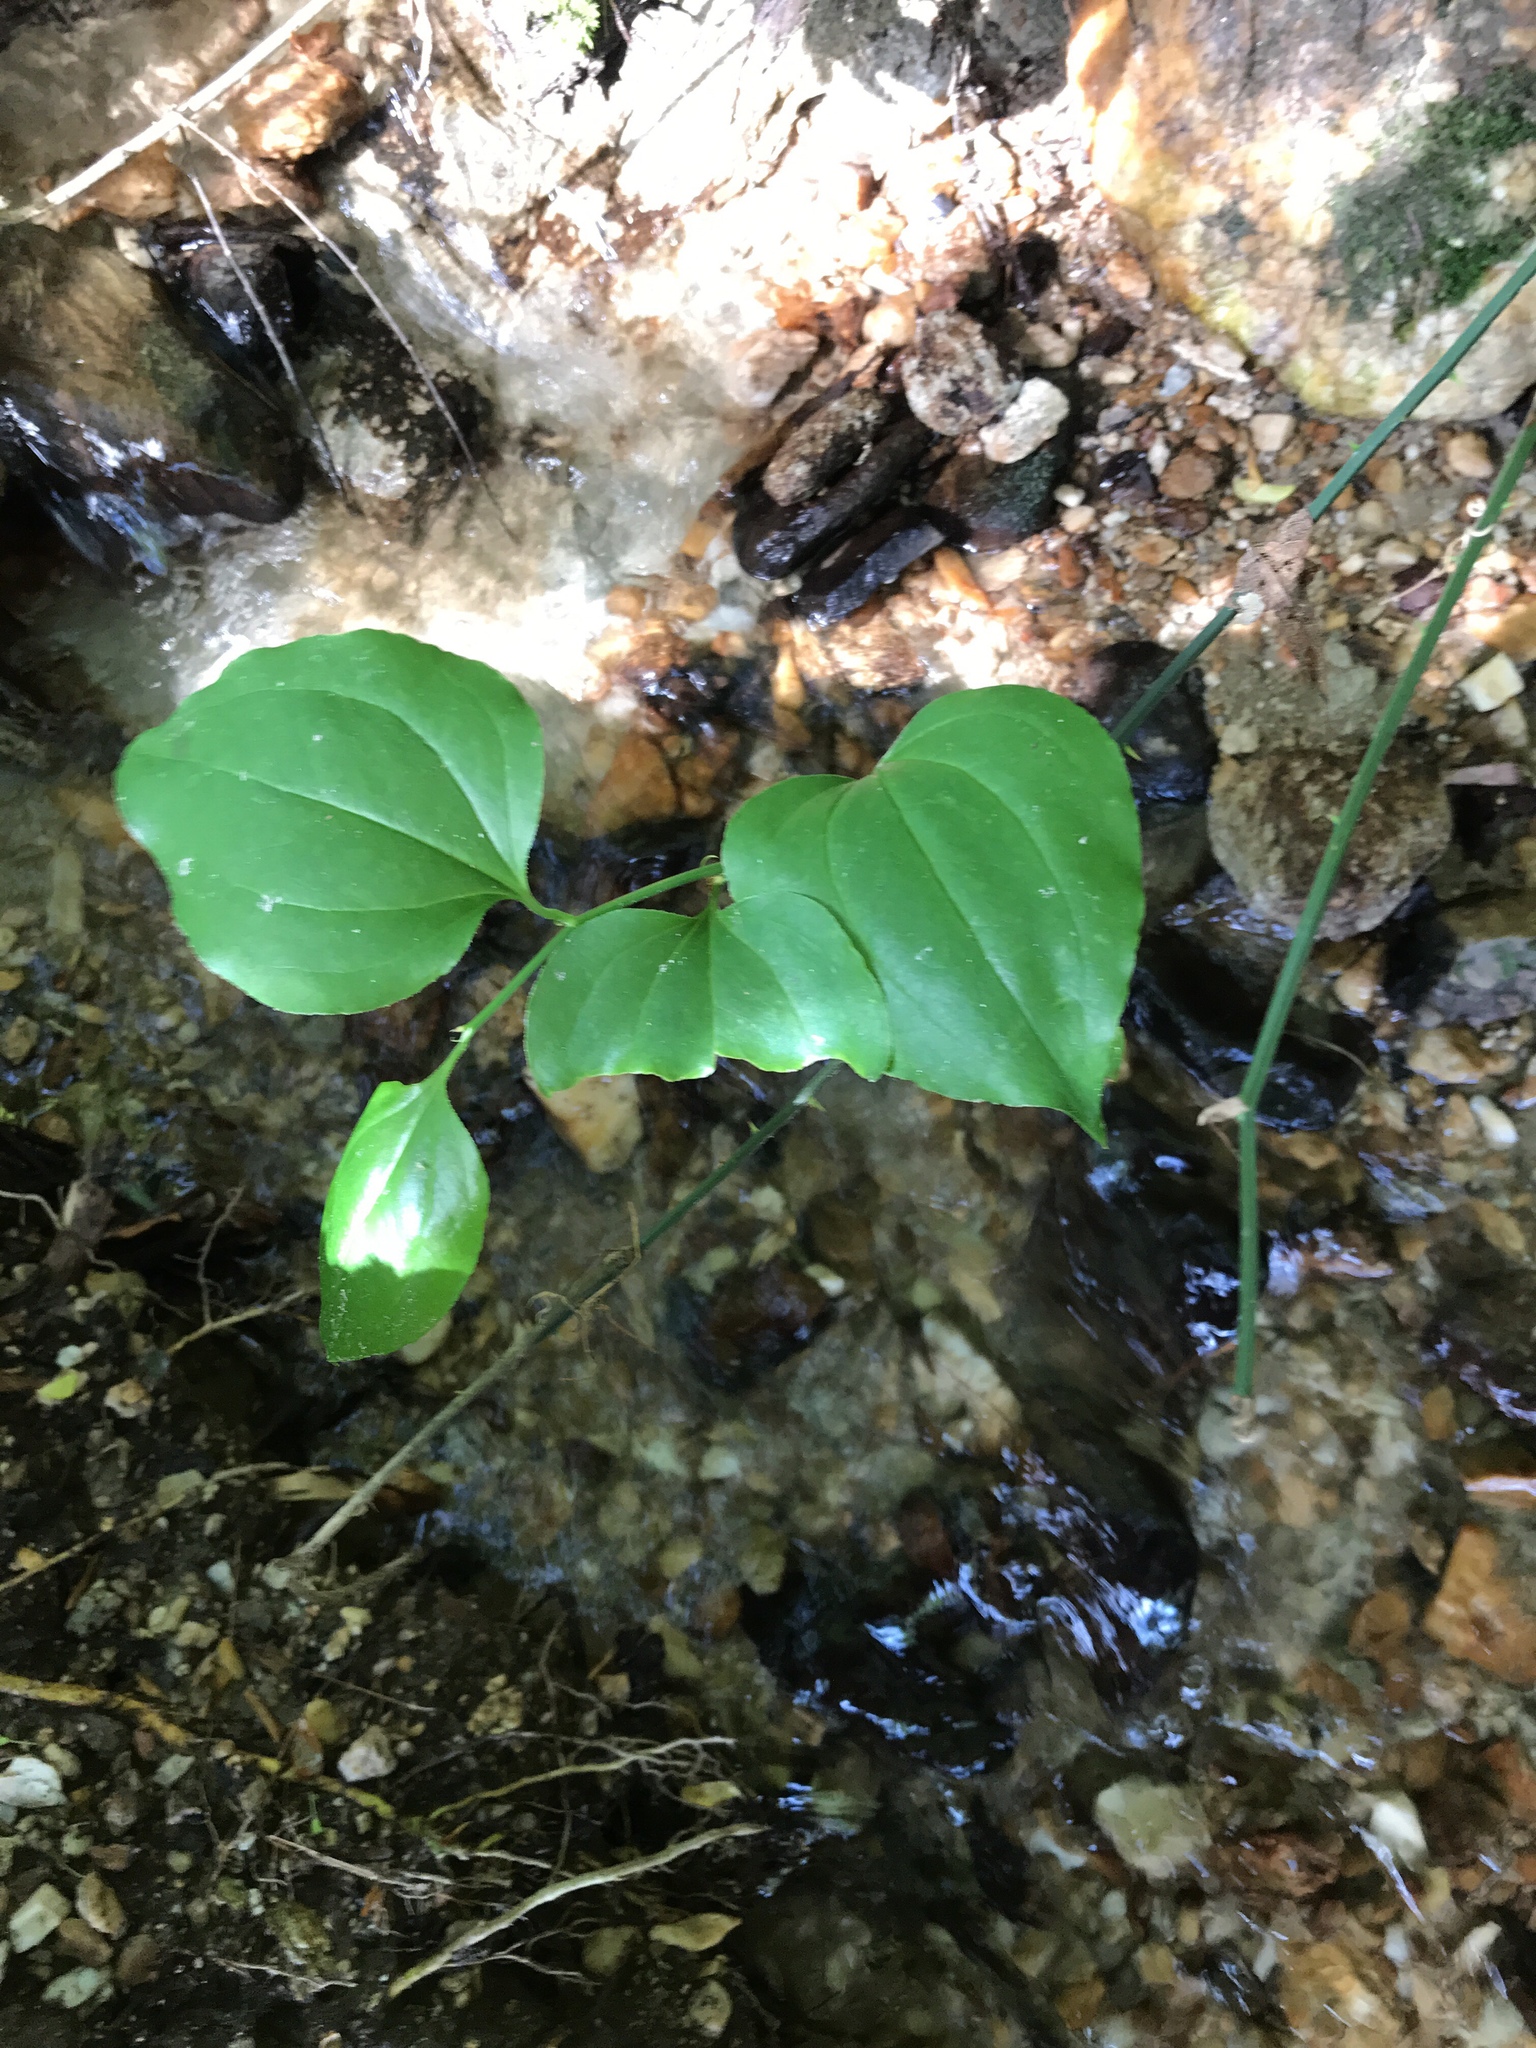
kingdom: Plantae
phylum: Tracheophyta
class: Liliopsida
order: Liliales
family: Smilacaceae
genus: Smilax
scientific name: Smilax rotundifolia
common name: Bullbriar
